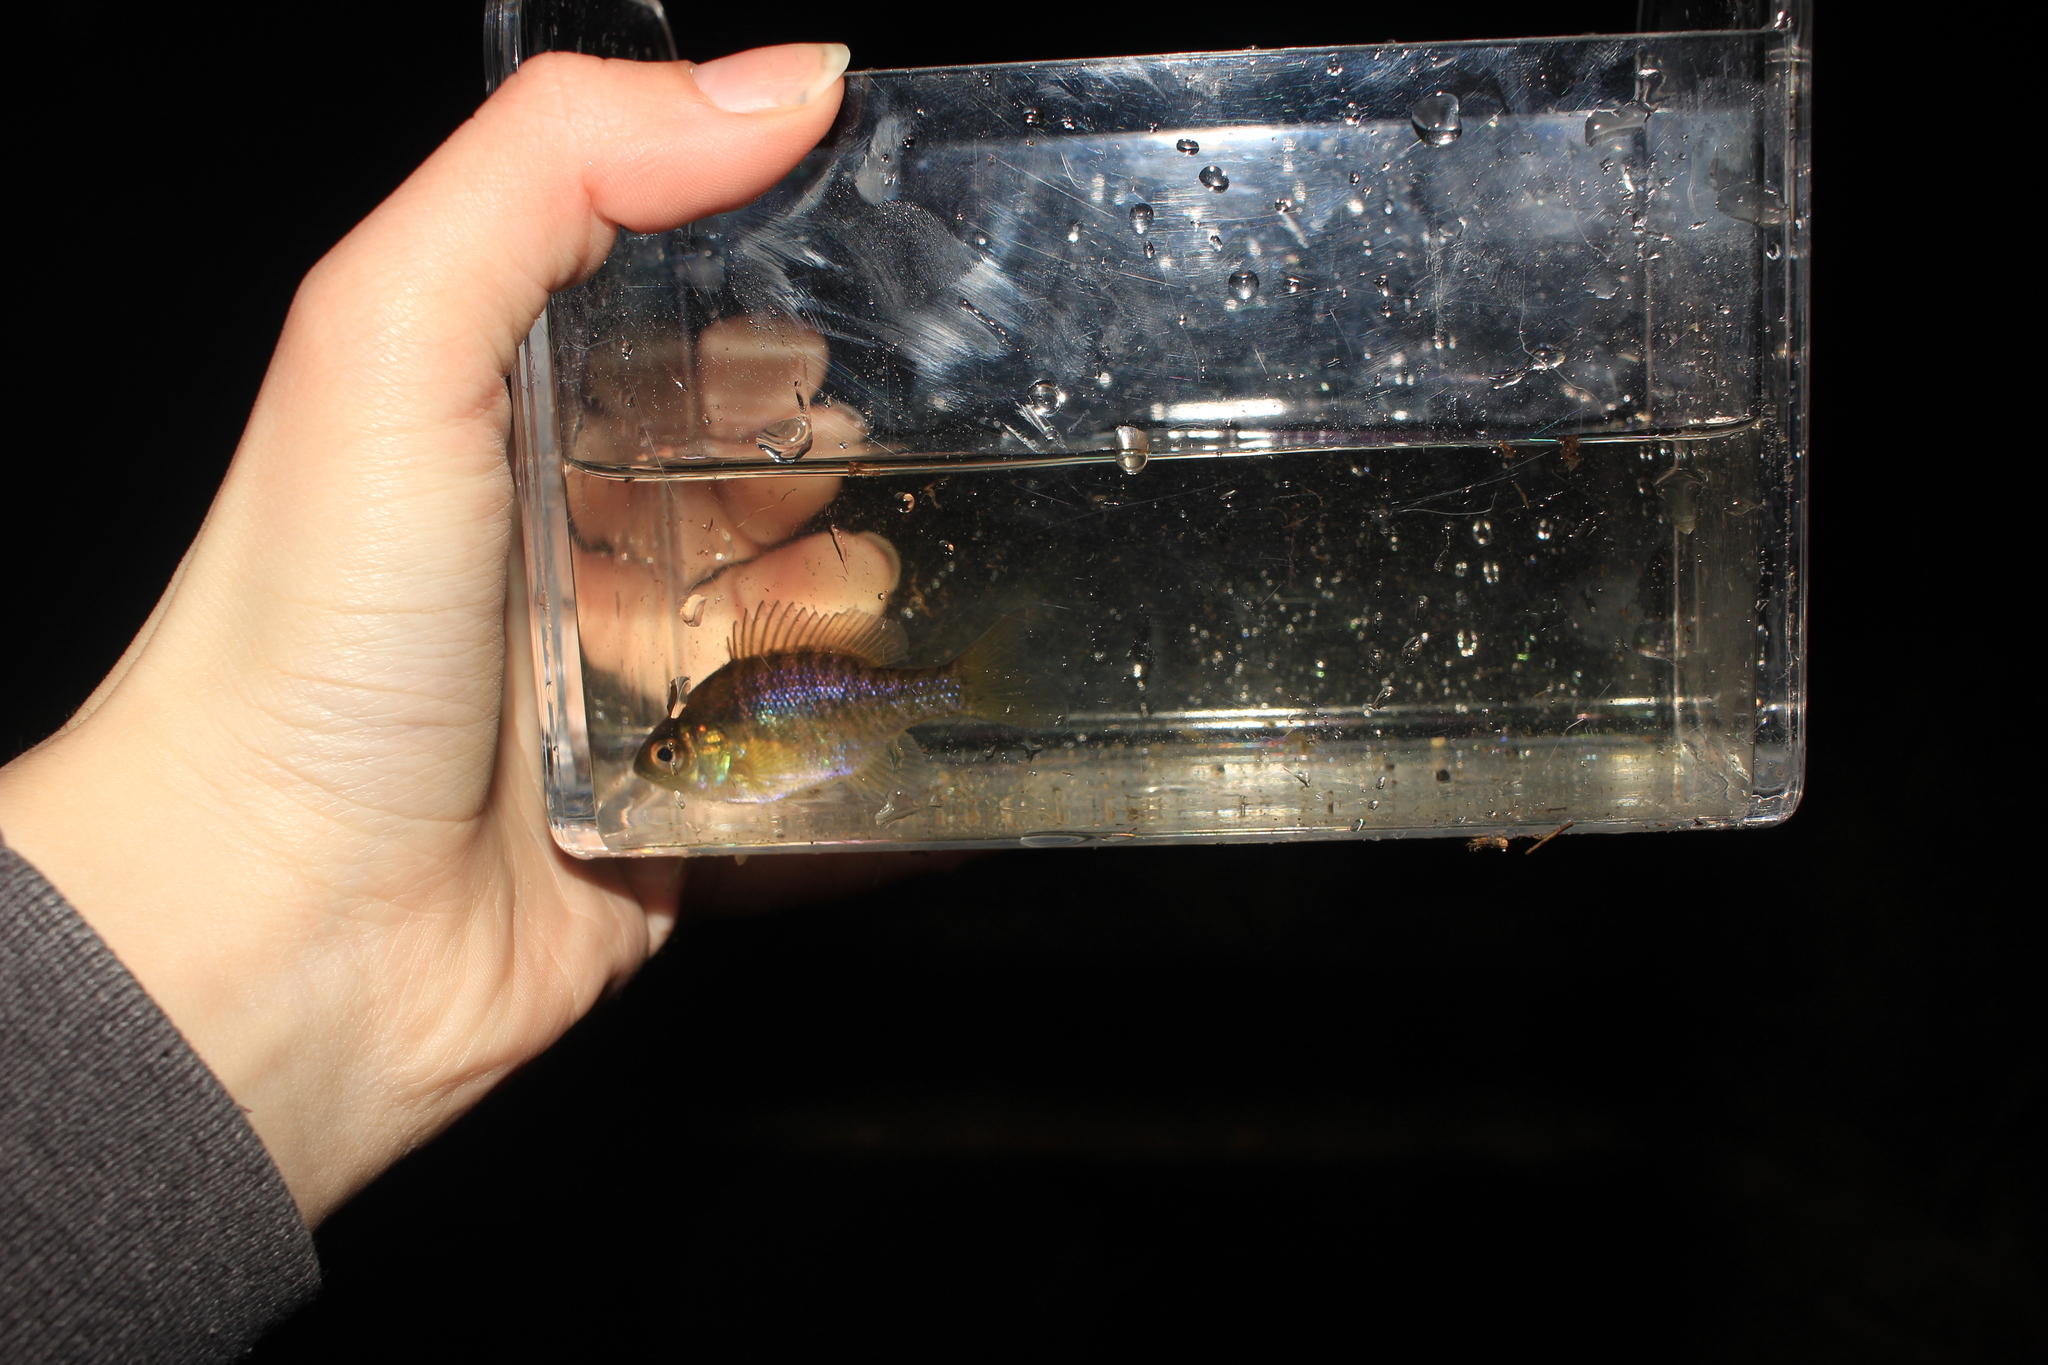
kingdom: Animalia
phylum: Chordata
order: Perciformes
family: Centrarchidae
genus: Lepomis
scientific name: Lepomis macrochirus
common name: Bluegill
